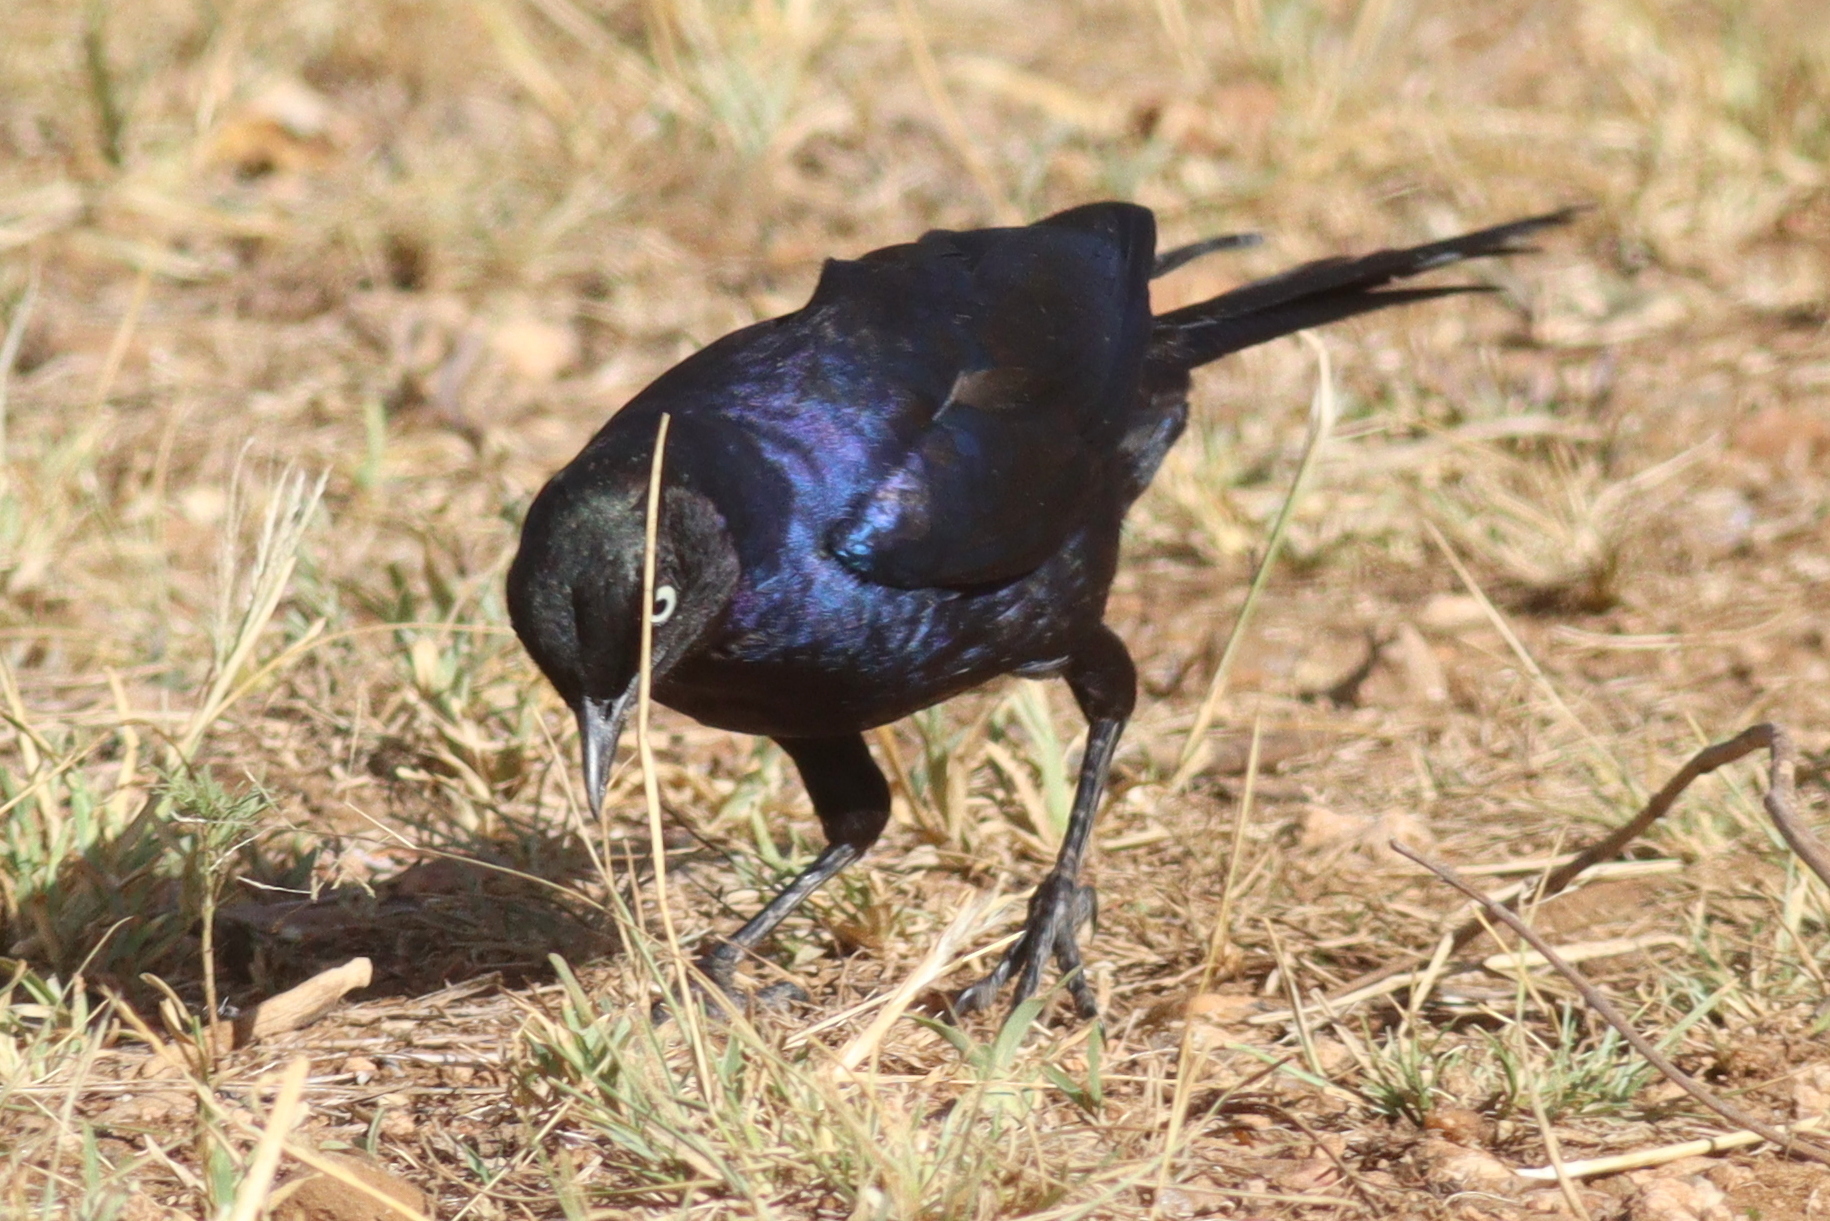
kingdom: Animalia
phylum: Chordata
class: Aves
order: Passeriformes
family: Sturnidae
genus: Lamprotornis
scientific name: Lamprotornis purpuroptera
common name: Rüppell's starling
